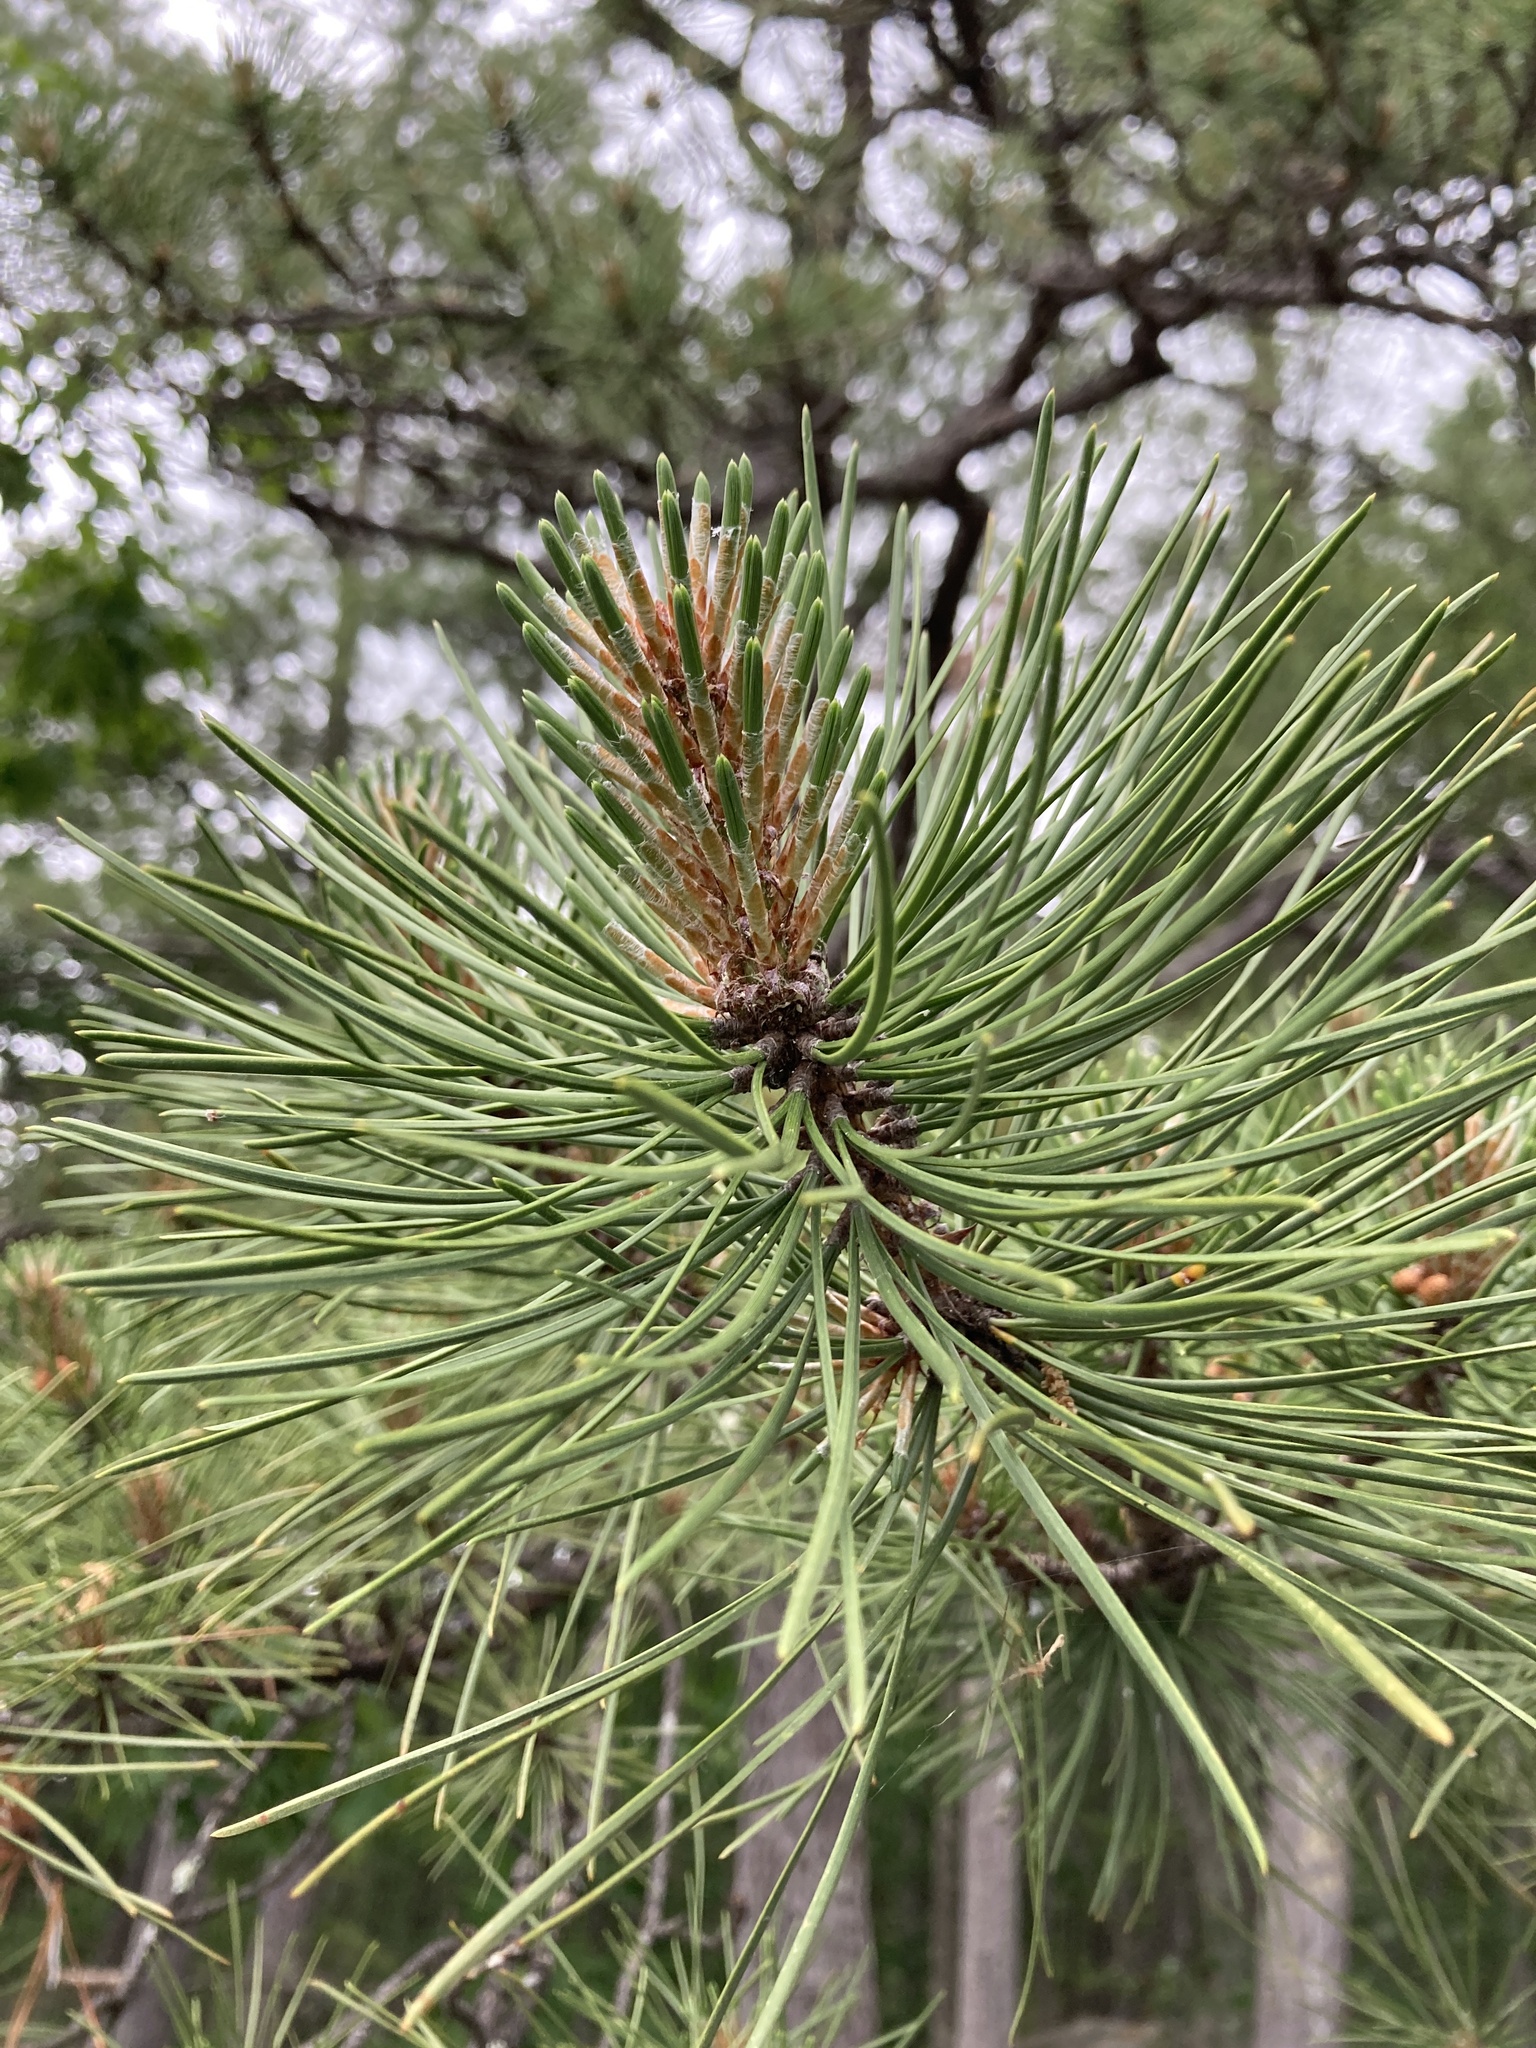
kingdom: Plantae
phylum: Tracheophyta
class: Pinopsida
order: Pinales
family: Pinaceae
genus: Pinus
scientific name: Pinus rigida
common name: Pitch pine
